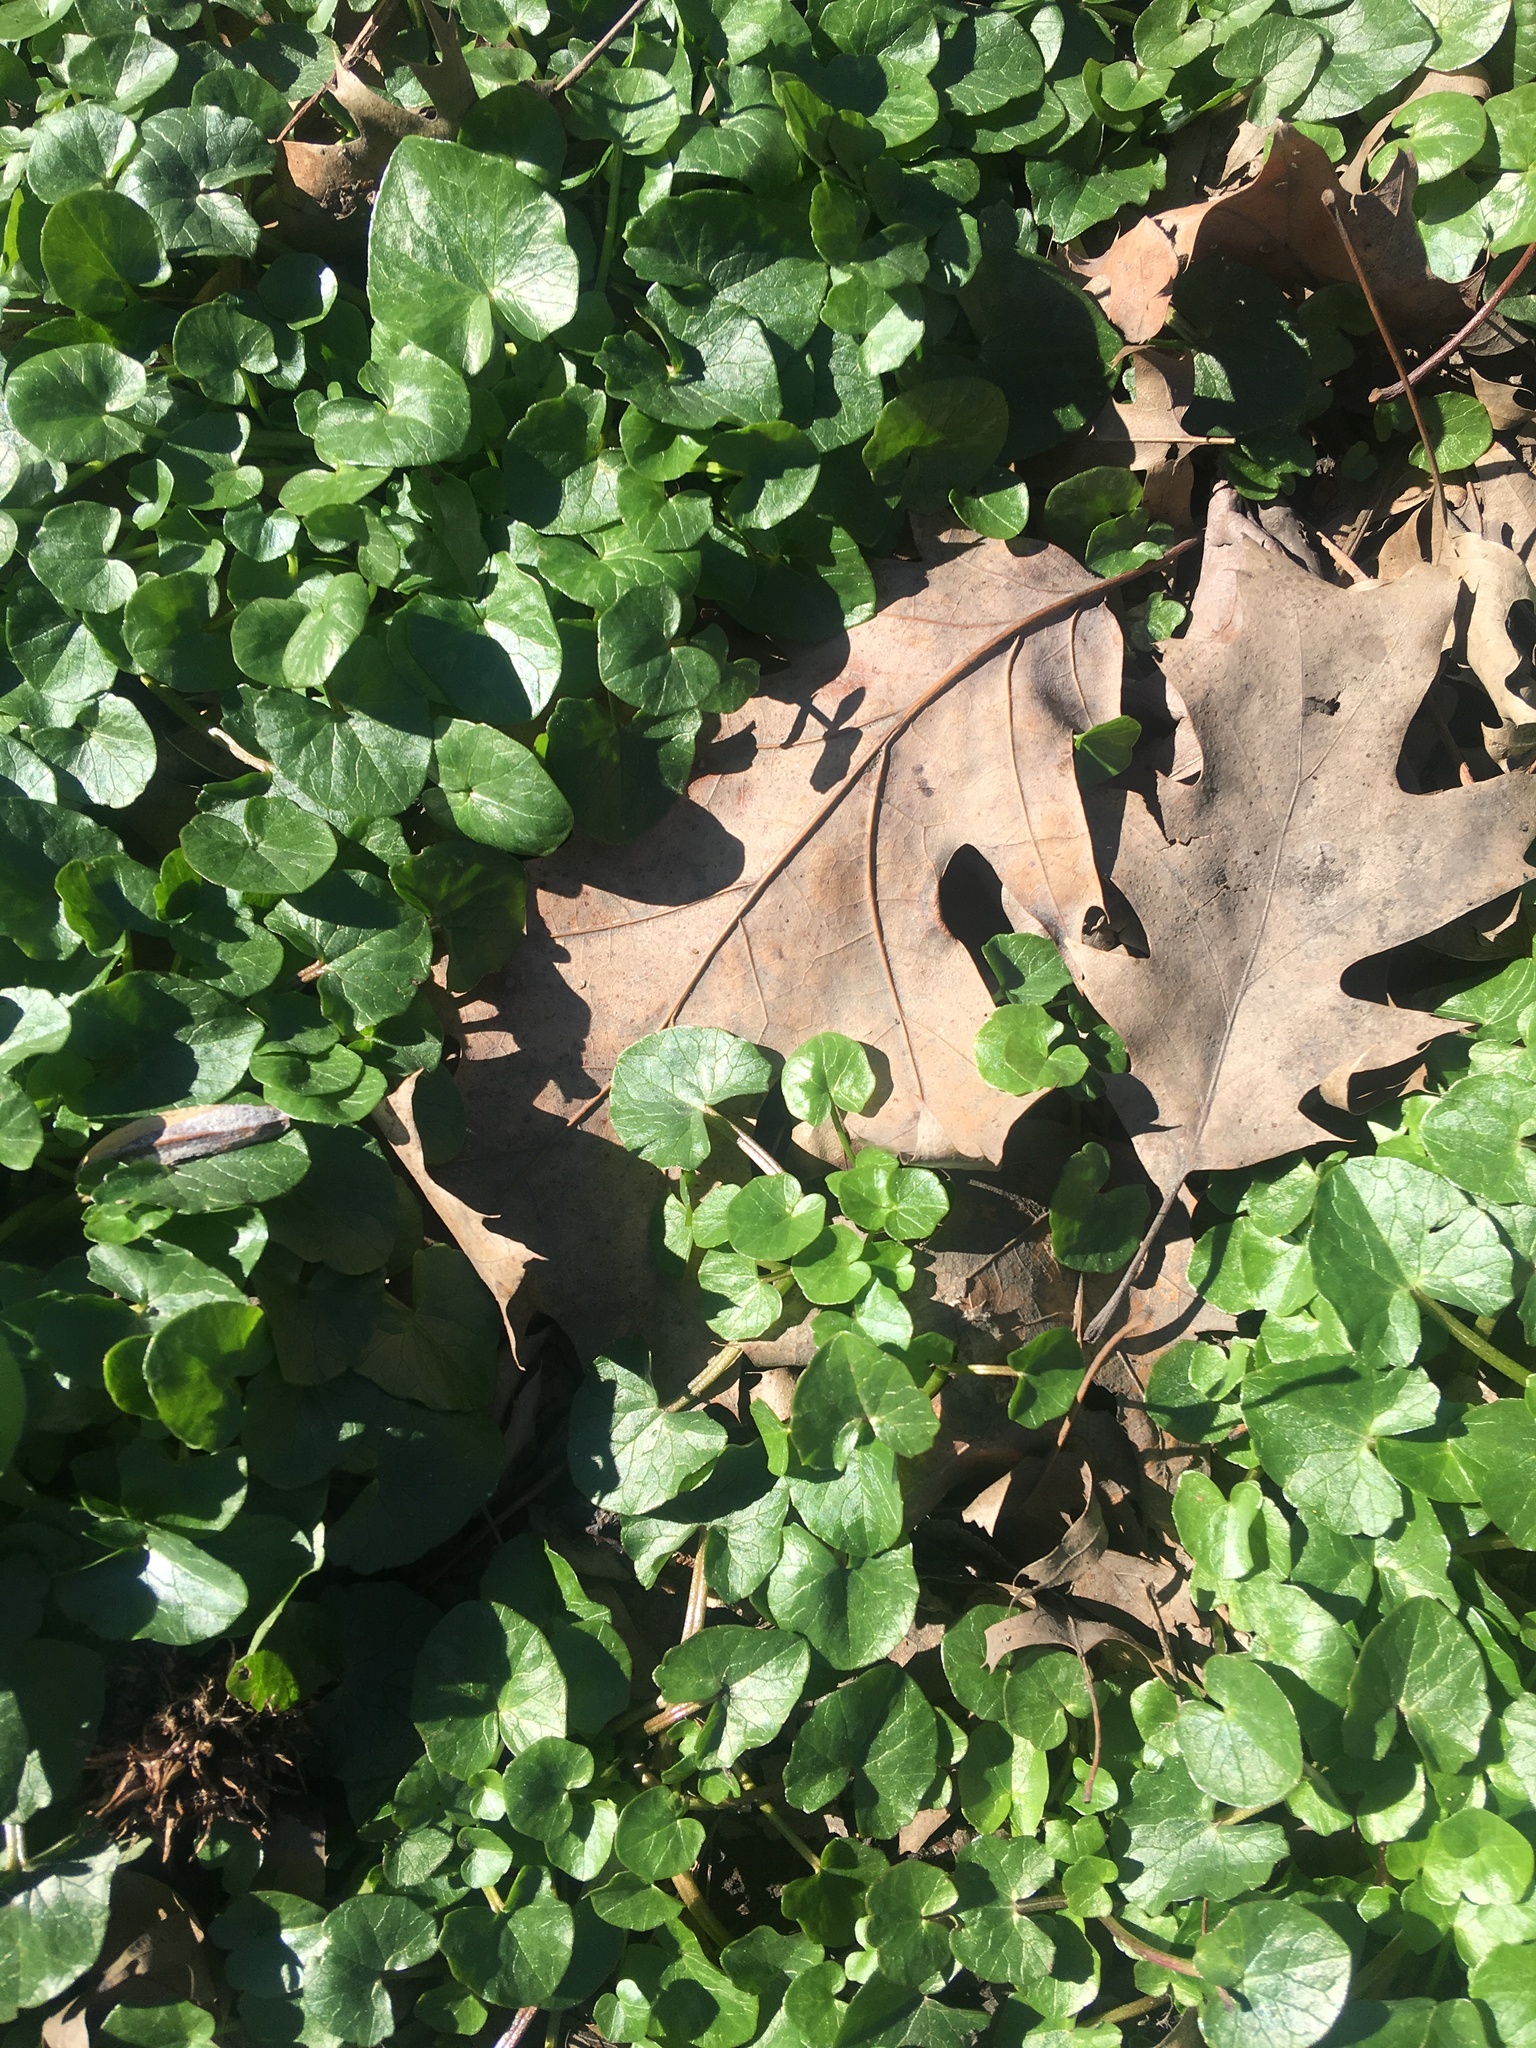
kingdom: Plantae
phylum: Tracheophyta
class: Magnoliopsida
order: Ranunculales
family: Ranunculaceae
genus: Ficaria
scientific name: Ficaria verna
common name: Lesser celandine
